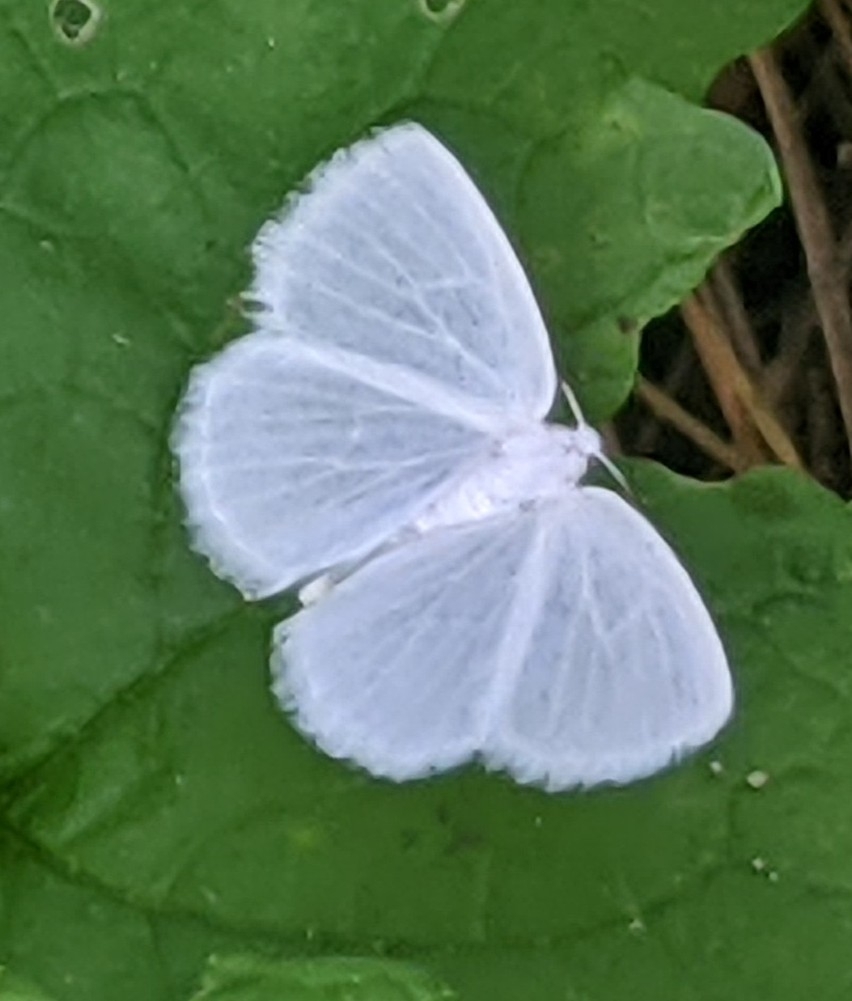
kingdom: Animalia
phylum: Arthropoda
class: Insecta
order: Lepidoptera
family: Geometridae
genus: Lomographa
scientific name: Lomographa vestaliata
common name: White spring moth
